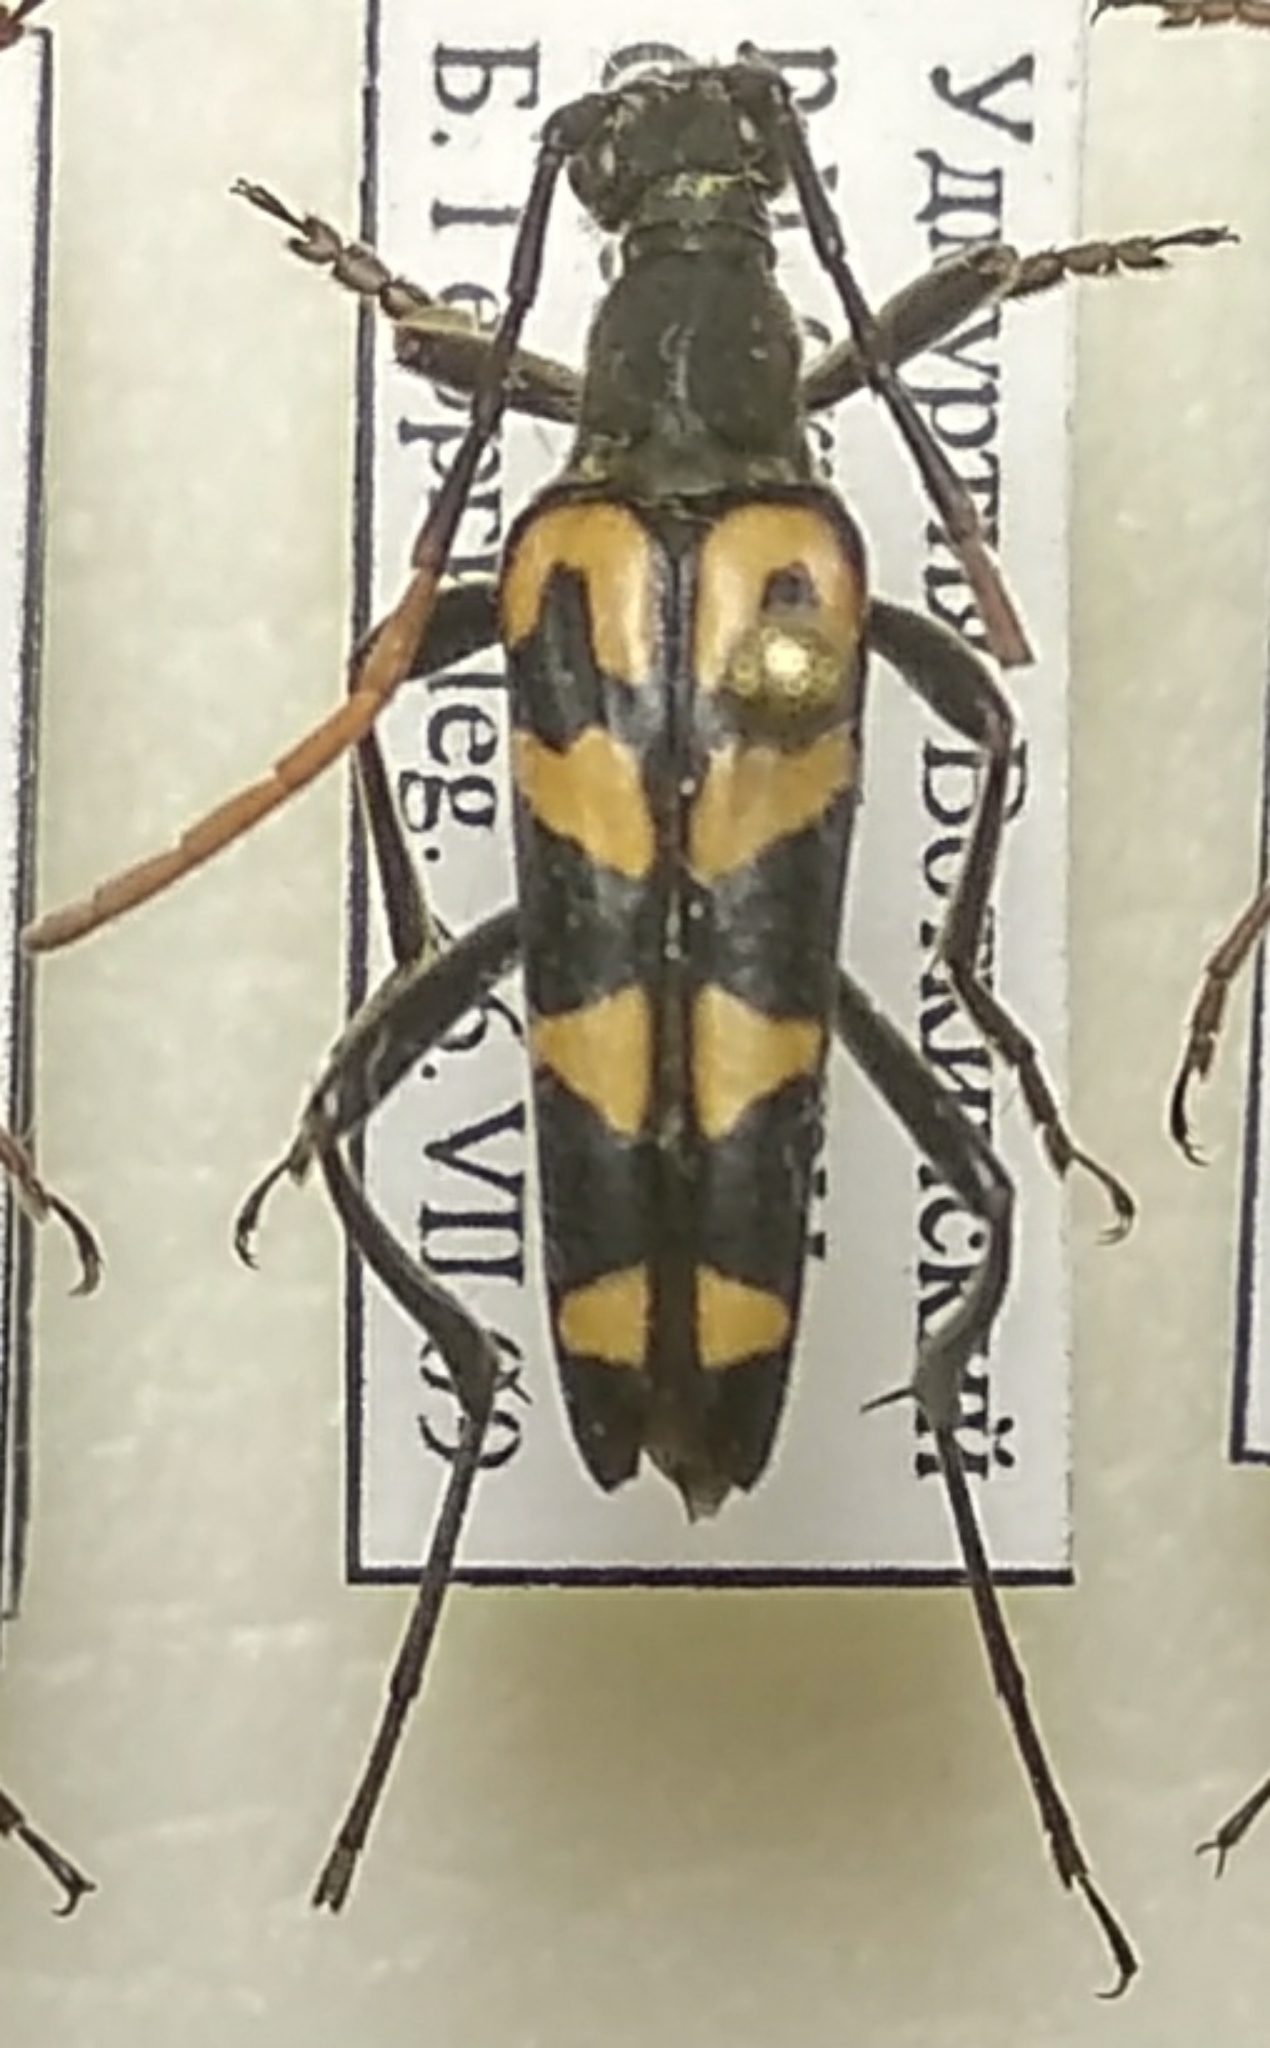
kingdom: Animalia
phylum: Arthropoda
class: Insecta
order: Coleoptera
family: Cerambycidae
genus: Leptura
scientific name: Leptura annularis
